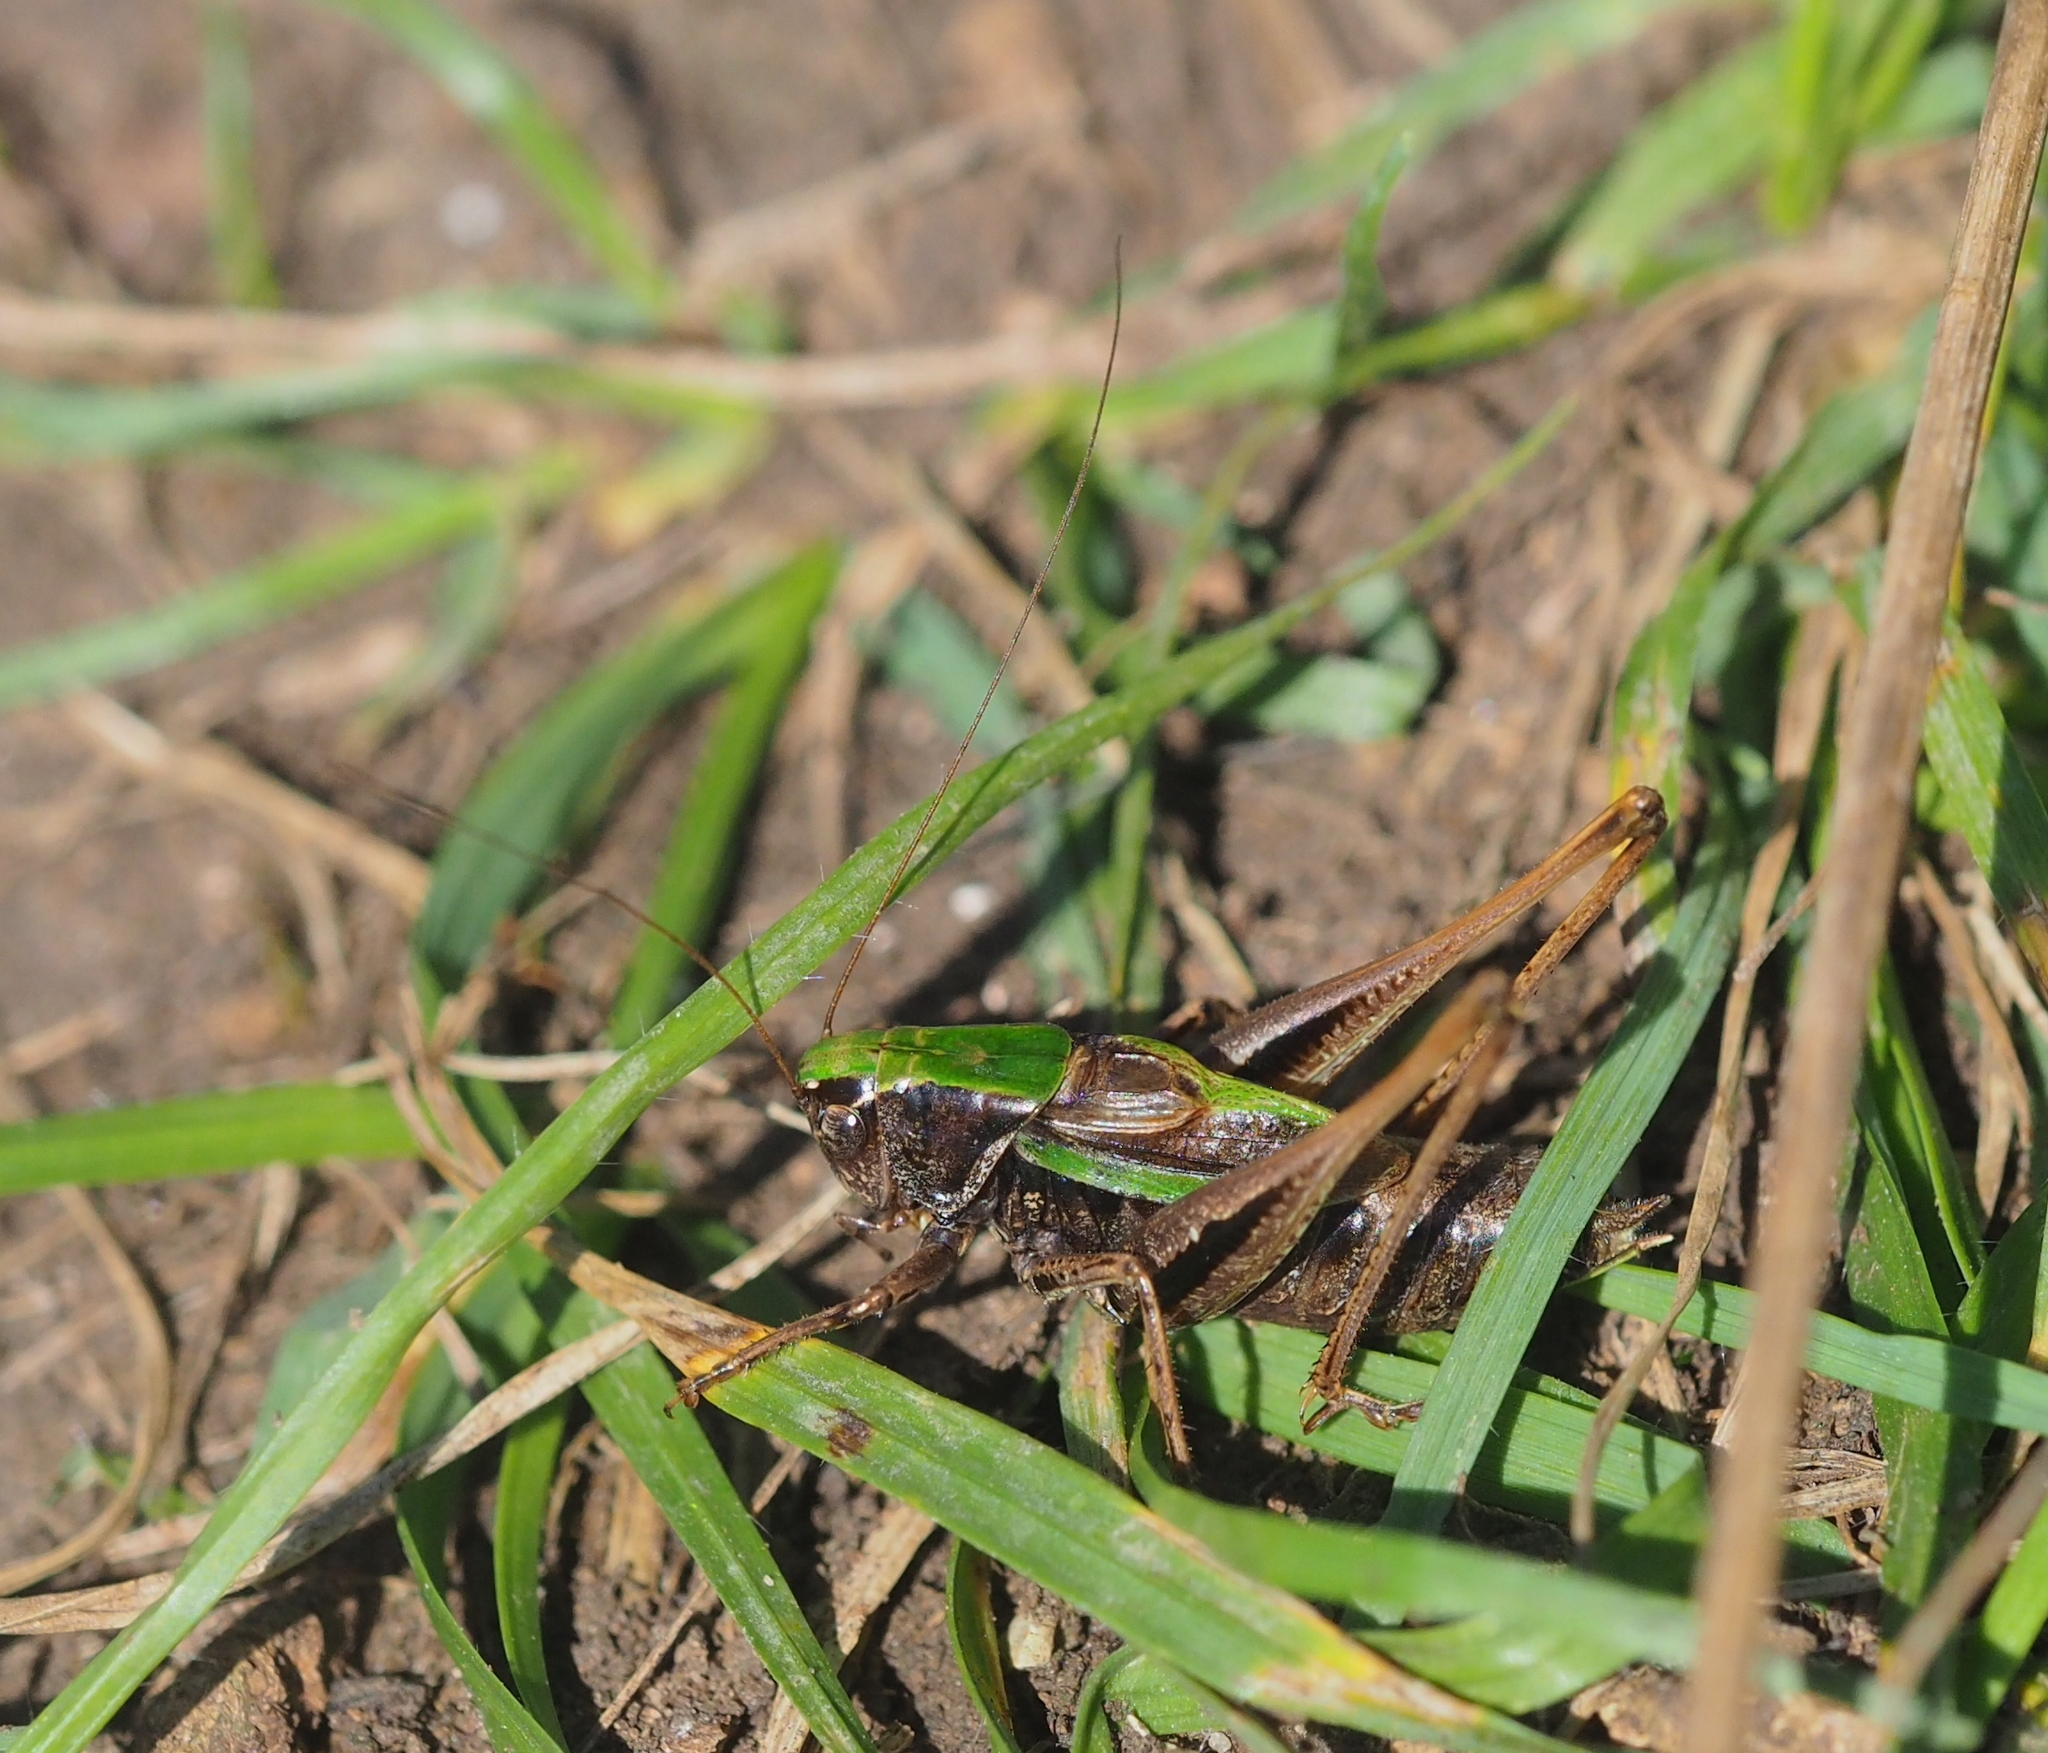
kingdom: Animalia
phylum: Arthropoda
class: Insecta
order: Orthoptera
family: Tettigoniidae
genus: Metrioptera
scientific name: Metrioptera brachyptera
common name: Bog bush-cricket
